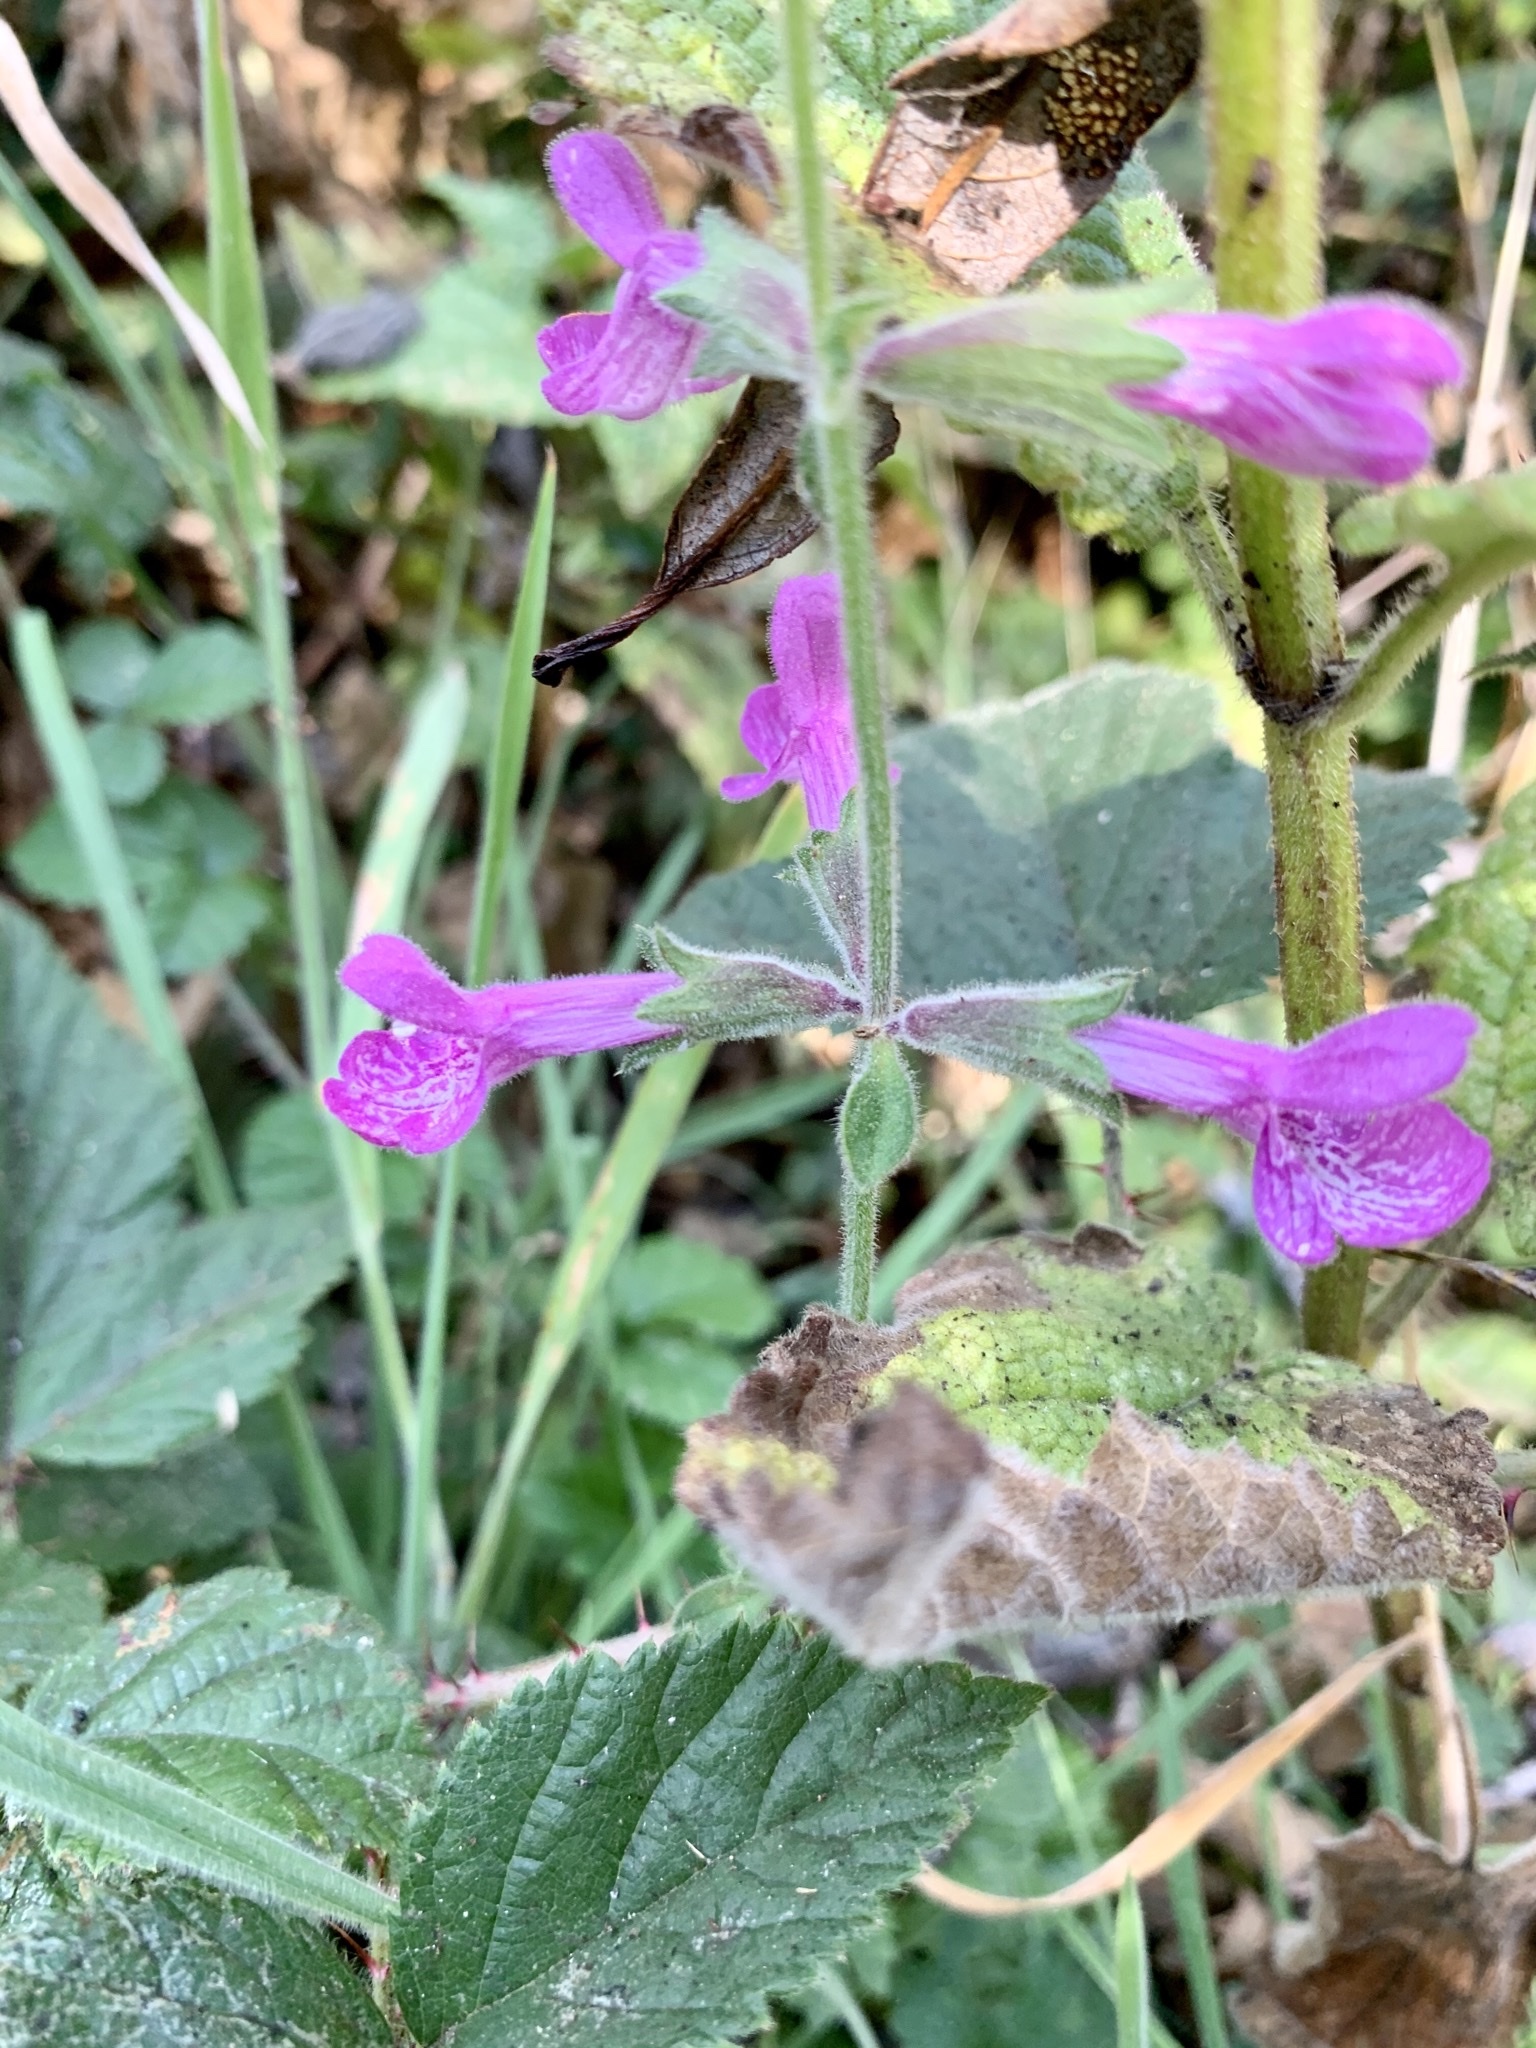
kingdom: Plantae
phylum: Tracheophyta
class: Magnoliopsida
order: Lamiales
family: Lamiaceae
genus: Stachys
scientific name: Stachys chamissonis
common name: Coastal hedge-nettle
